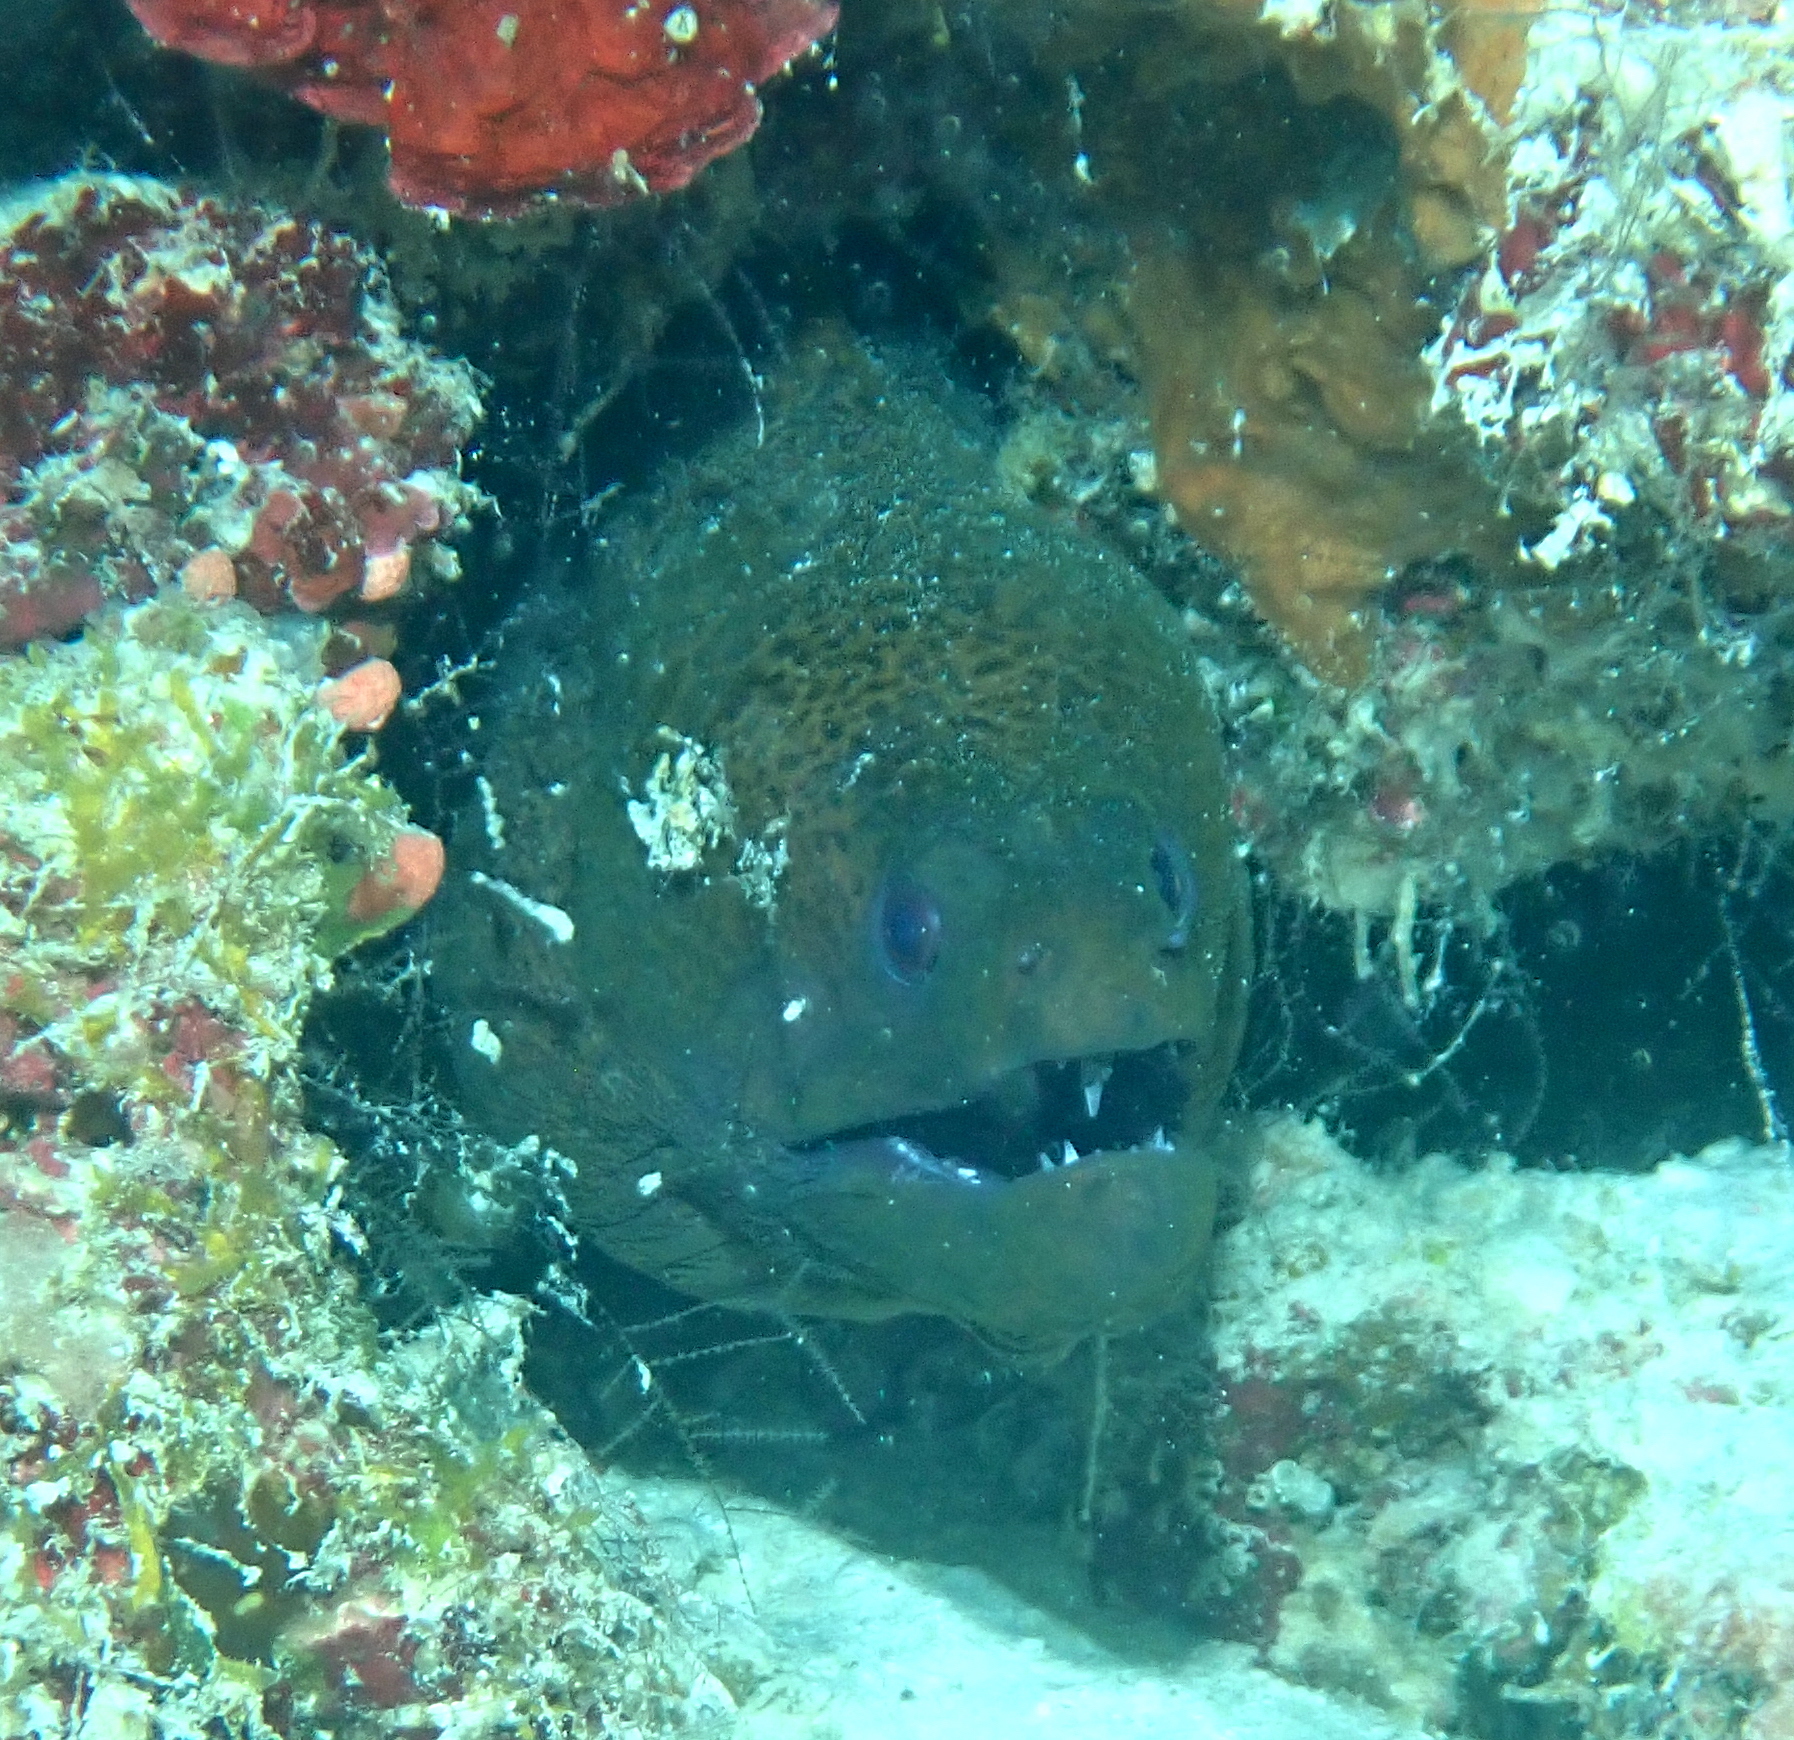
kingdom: Animalia
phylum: Chordata
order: Anguilliformes
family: Muraenidae
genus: Gymnothorax
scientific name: Gymnothorax javanicus
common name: Giant moray
